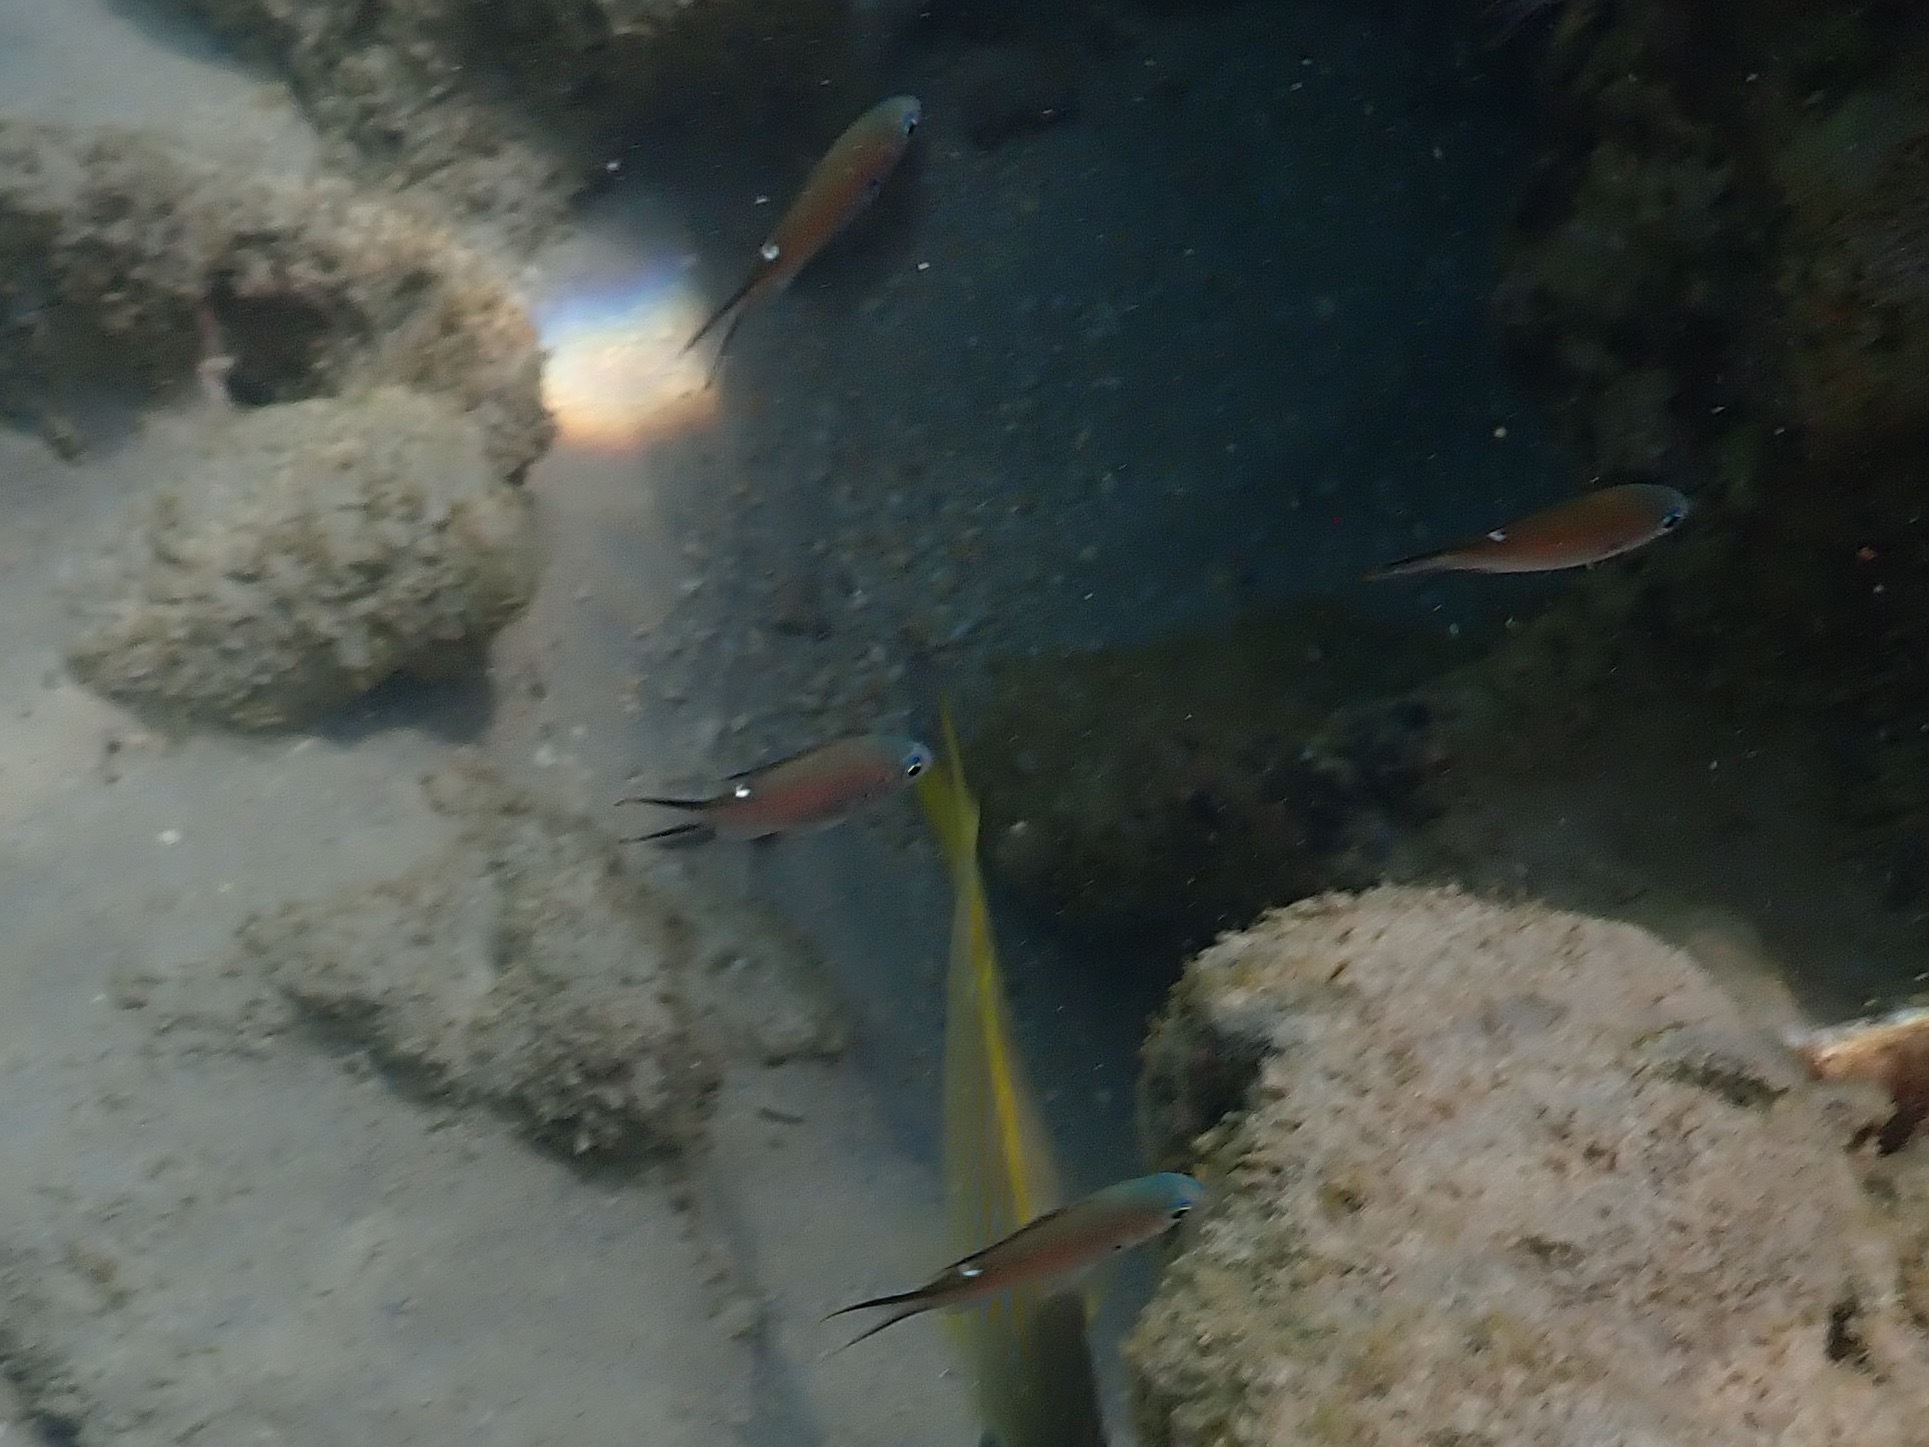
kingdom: Animalia
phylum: Chordata
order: Perciformes
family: Pomacentridae
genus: Chromis
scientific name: Chromis multilineata
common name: Brown chromis
